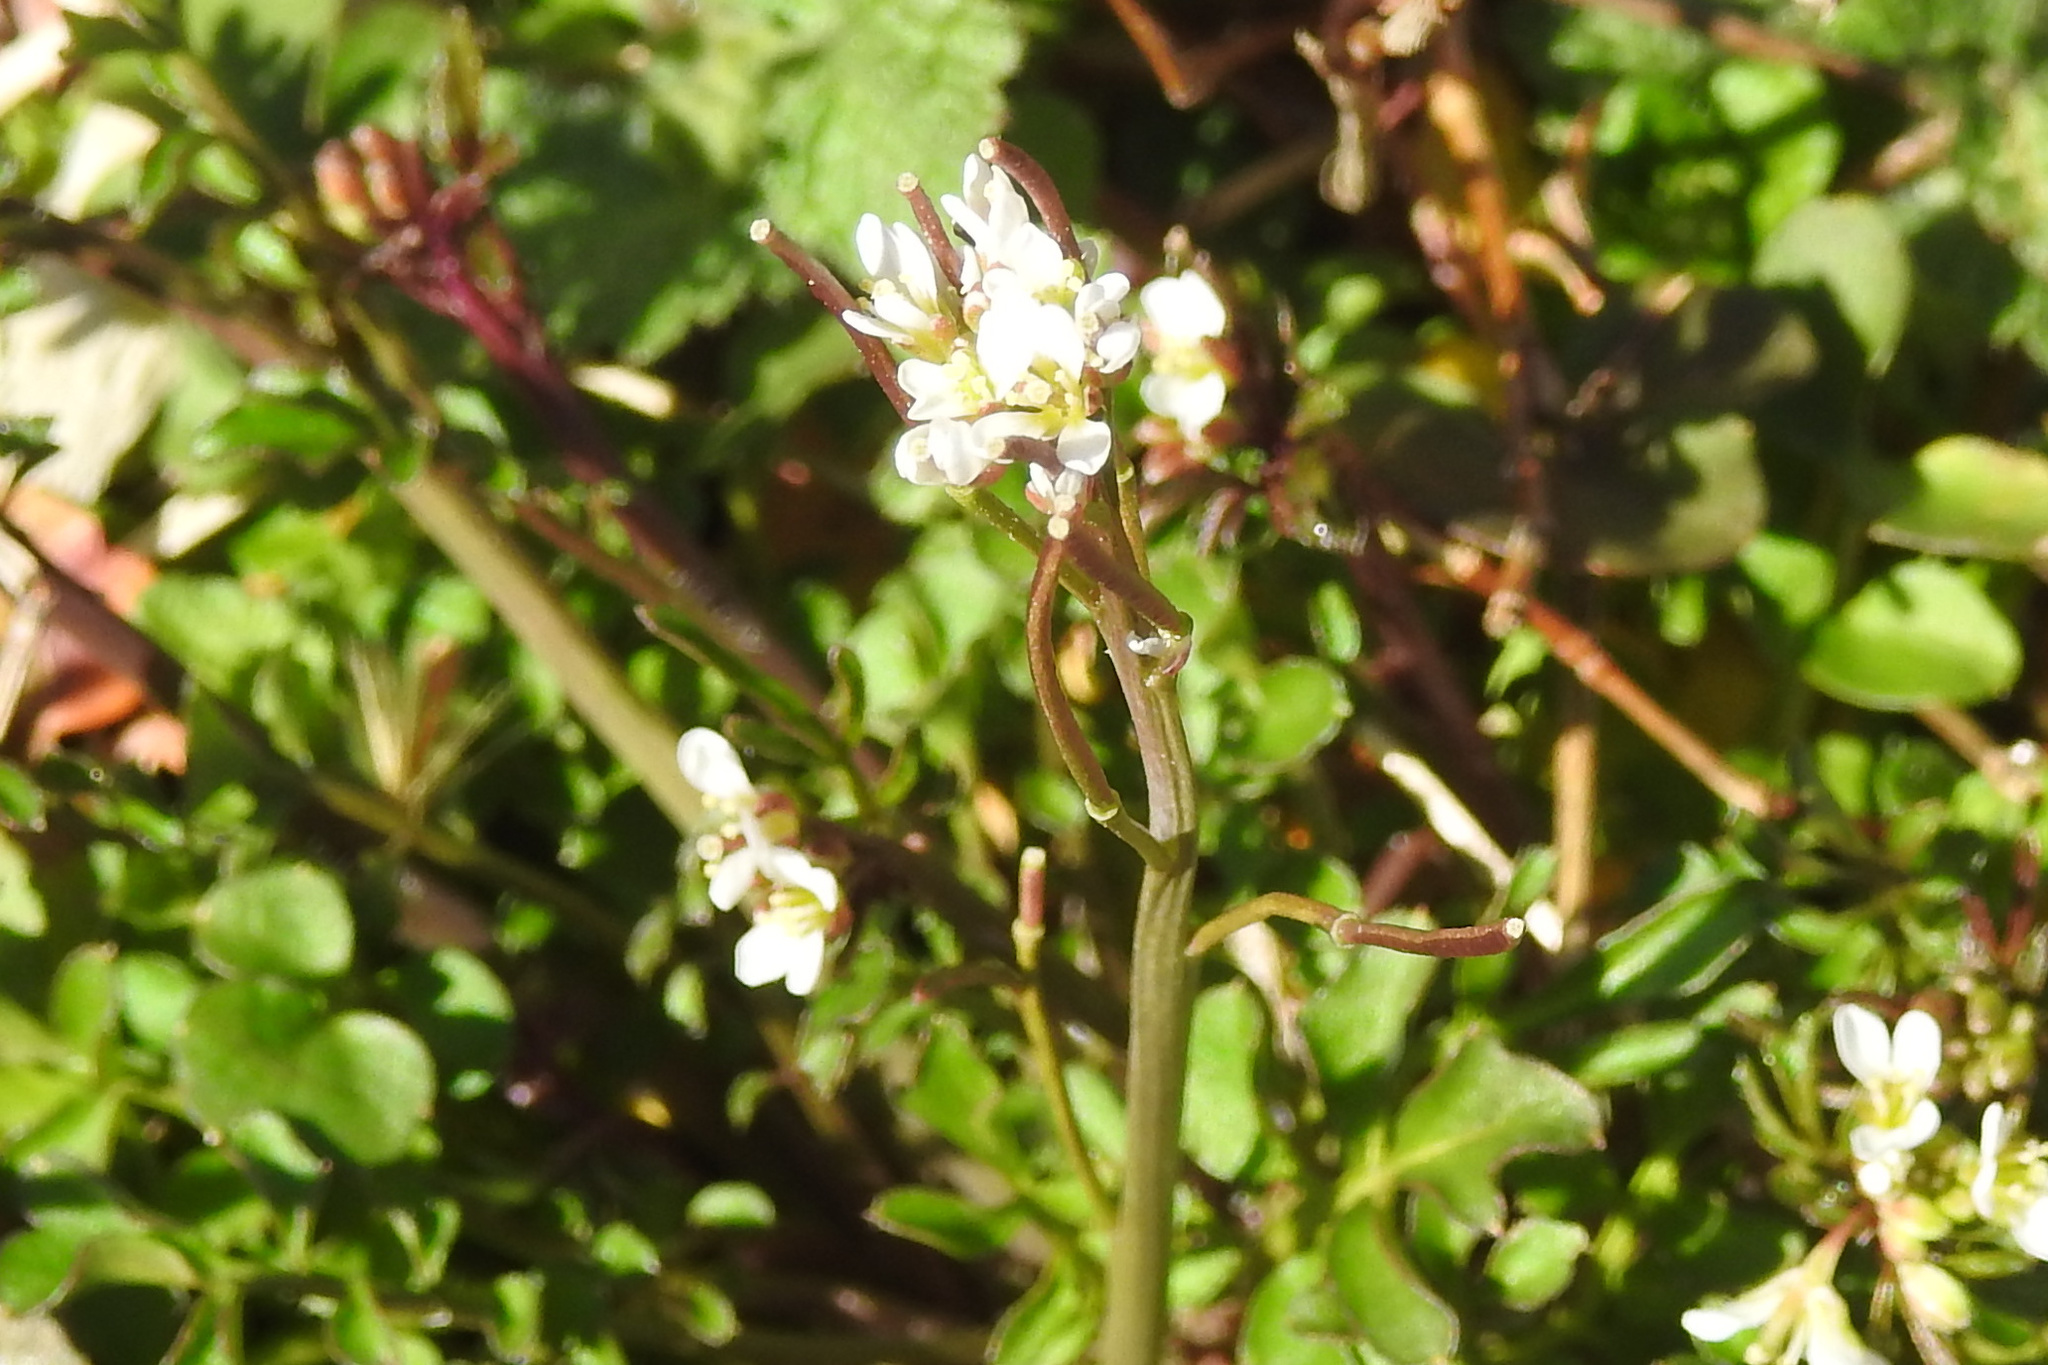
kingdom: Plantae
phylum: Tracheophyta
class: Magnoliopsida
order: Brassicales
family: Brassicaceae
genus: Cardamine
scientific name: Cardamine hirsuta
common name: Hairy bittercress
